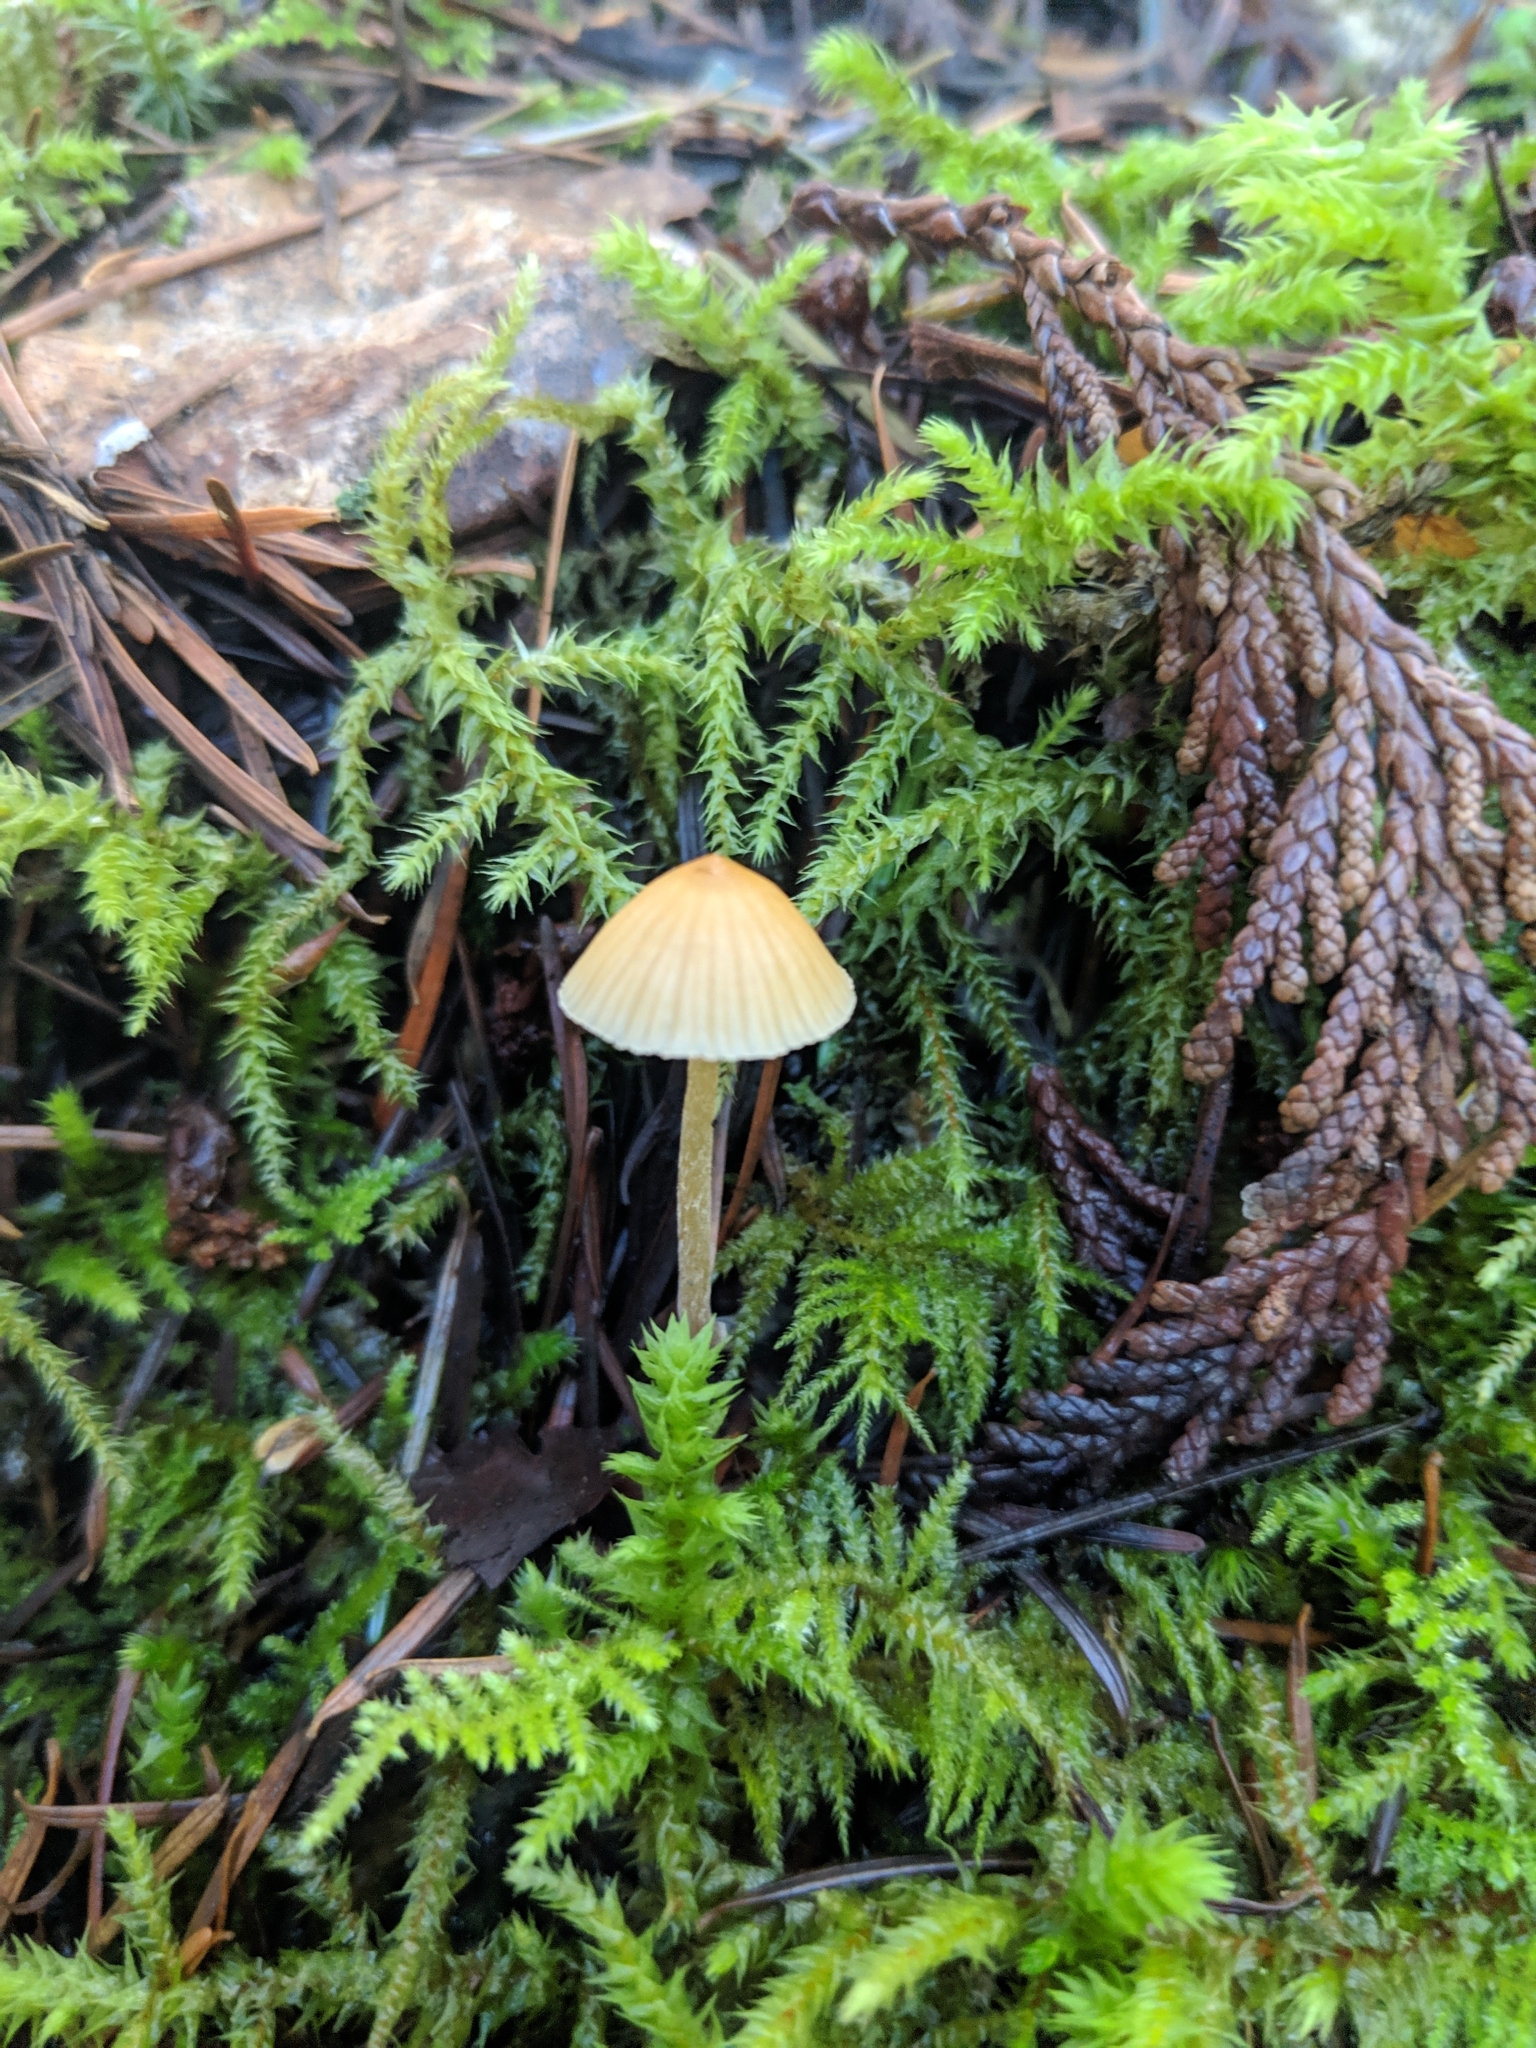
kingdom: Fungi
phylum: Basidiomycota
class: Agaricomycetes
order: Agaricales
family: Mycenaceae
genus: Atheniella
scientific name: Atheniella adonis
